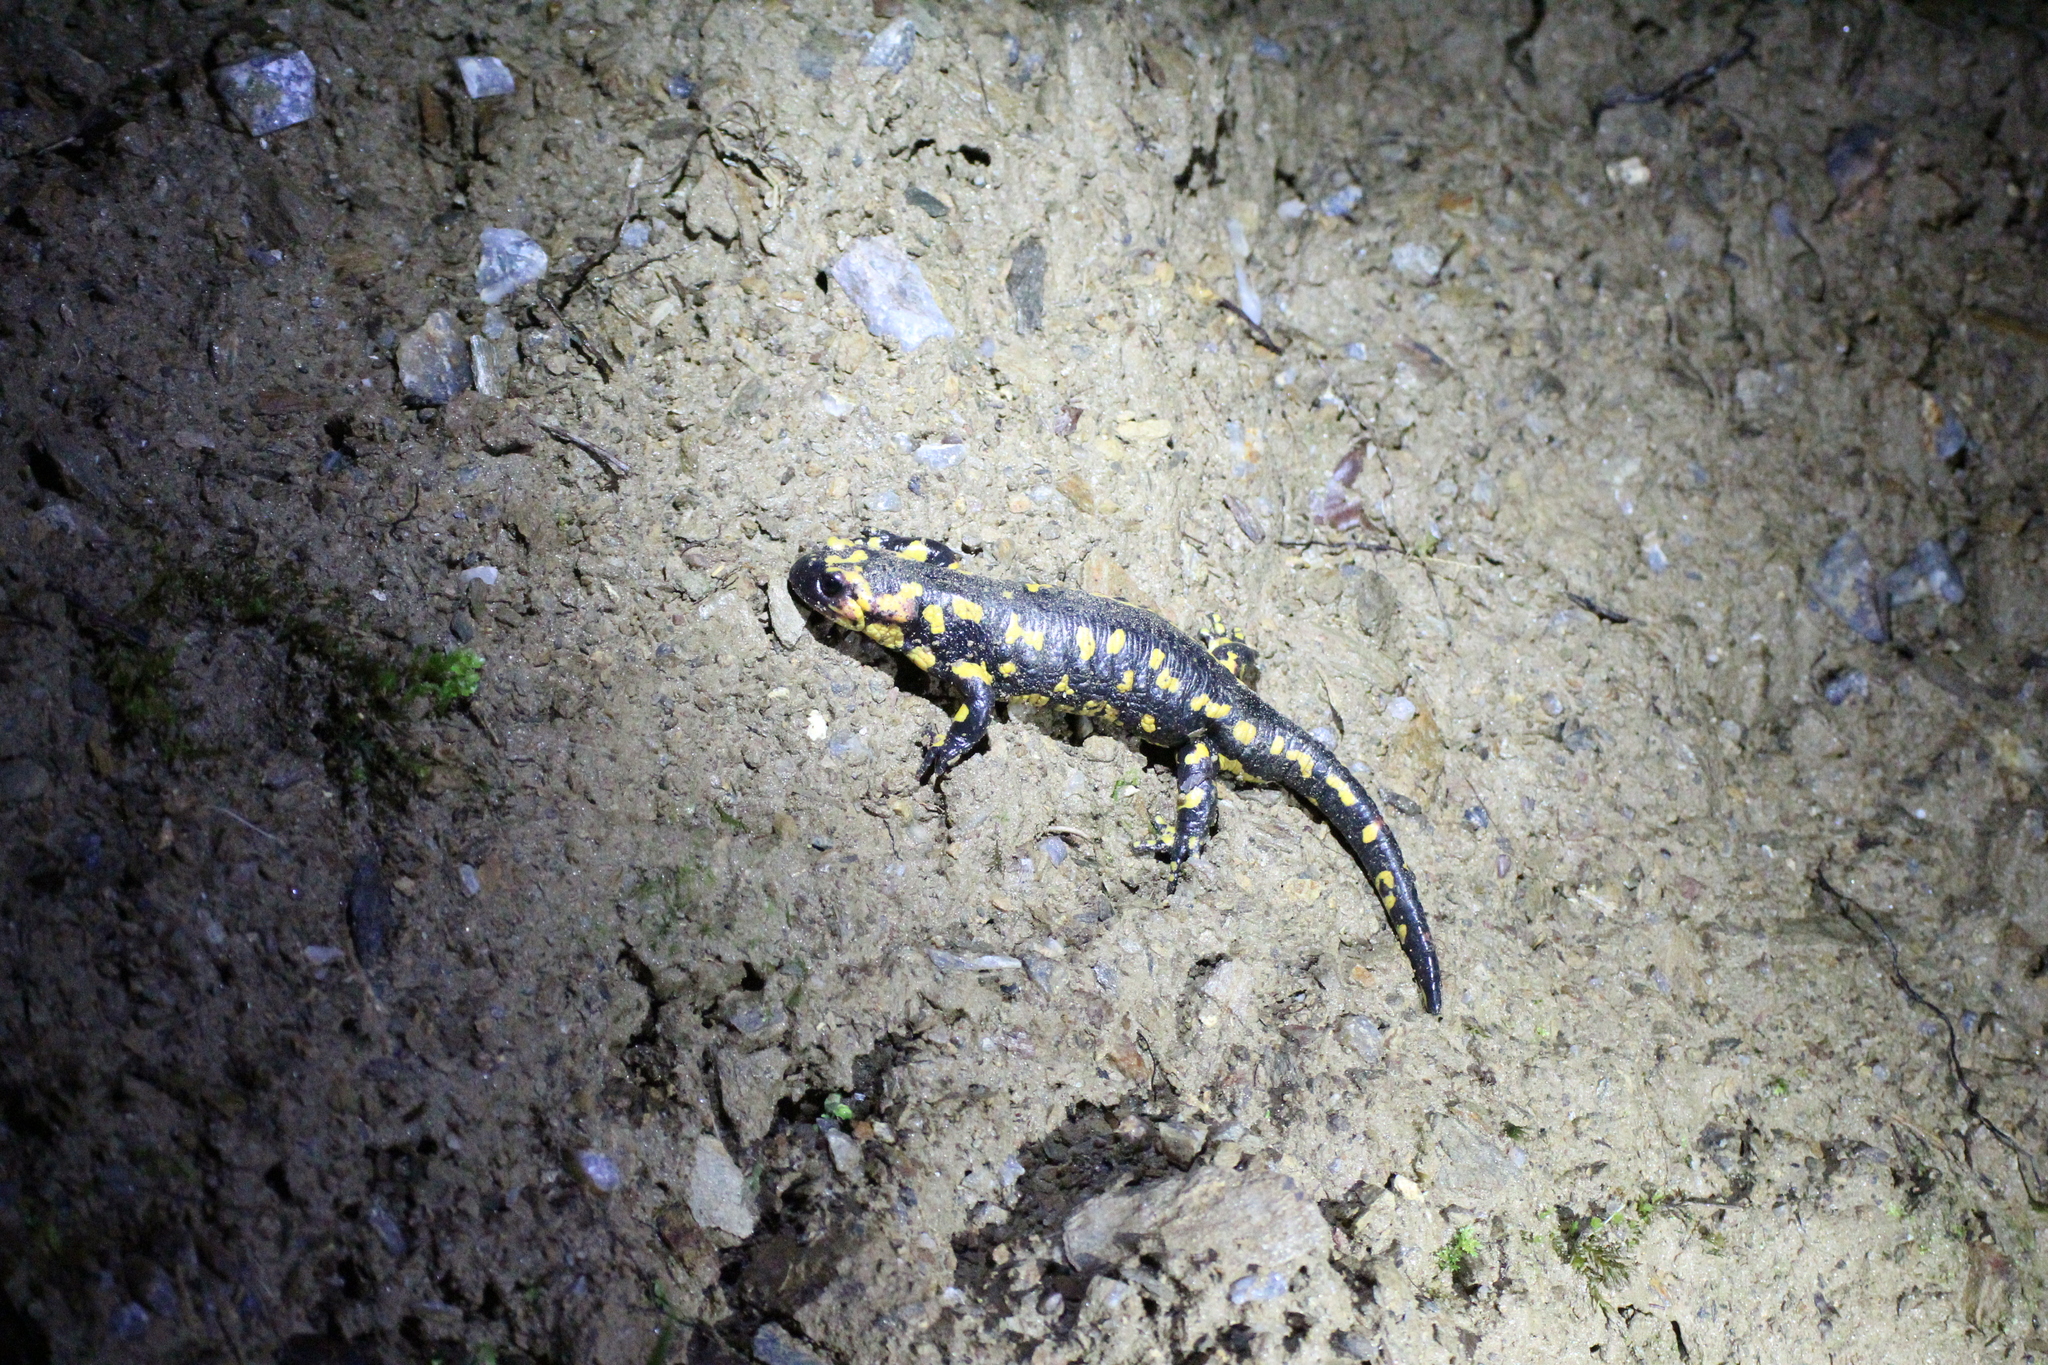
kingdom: Animalia
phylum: Chordata
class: Amphibia
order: Caudata
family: Salamandridae
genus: Salamandra
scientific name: Salamandra salamandra
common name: Fire salamander
